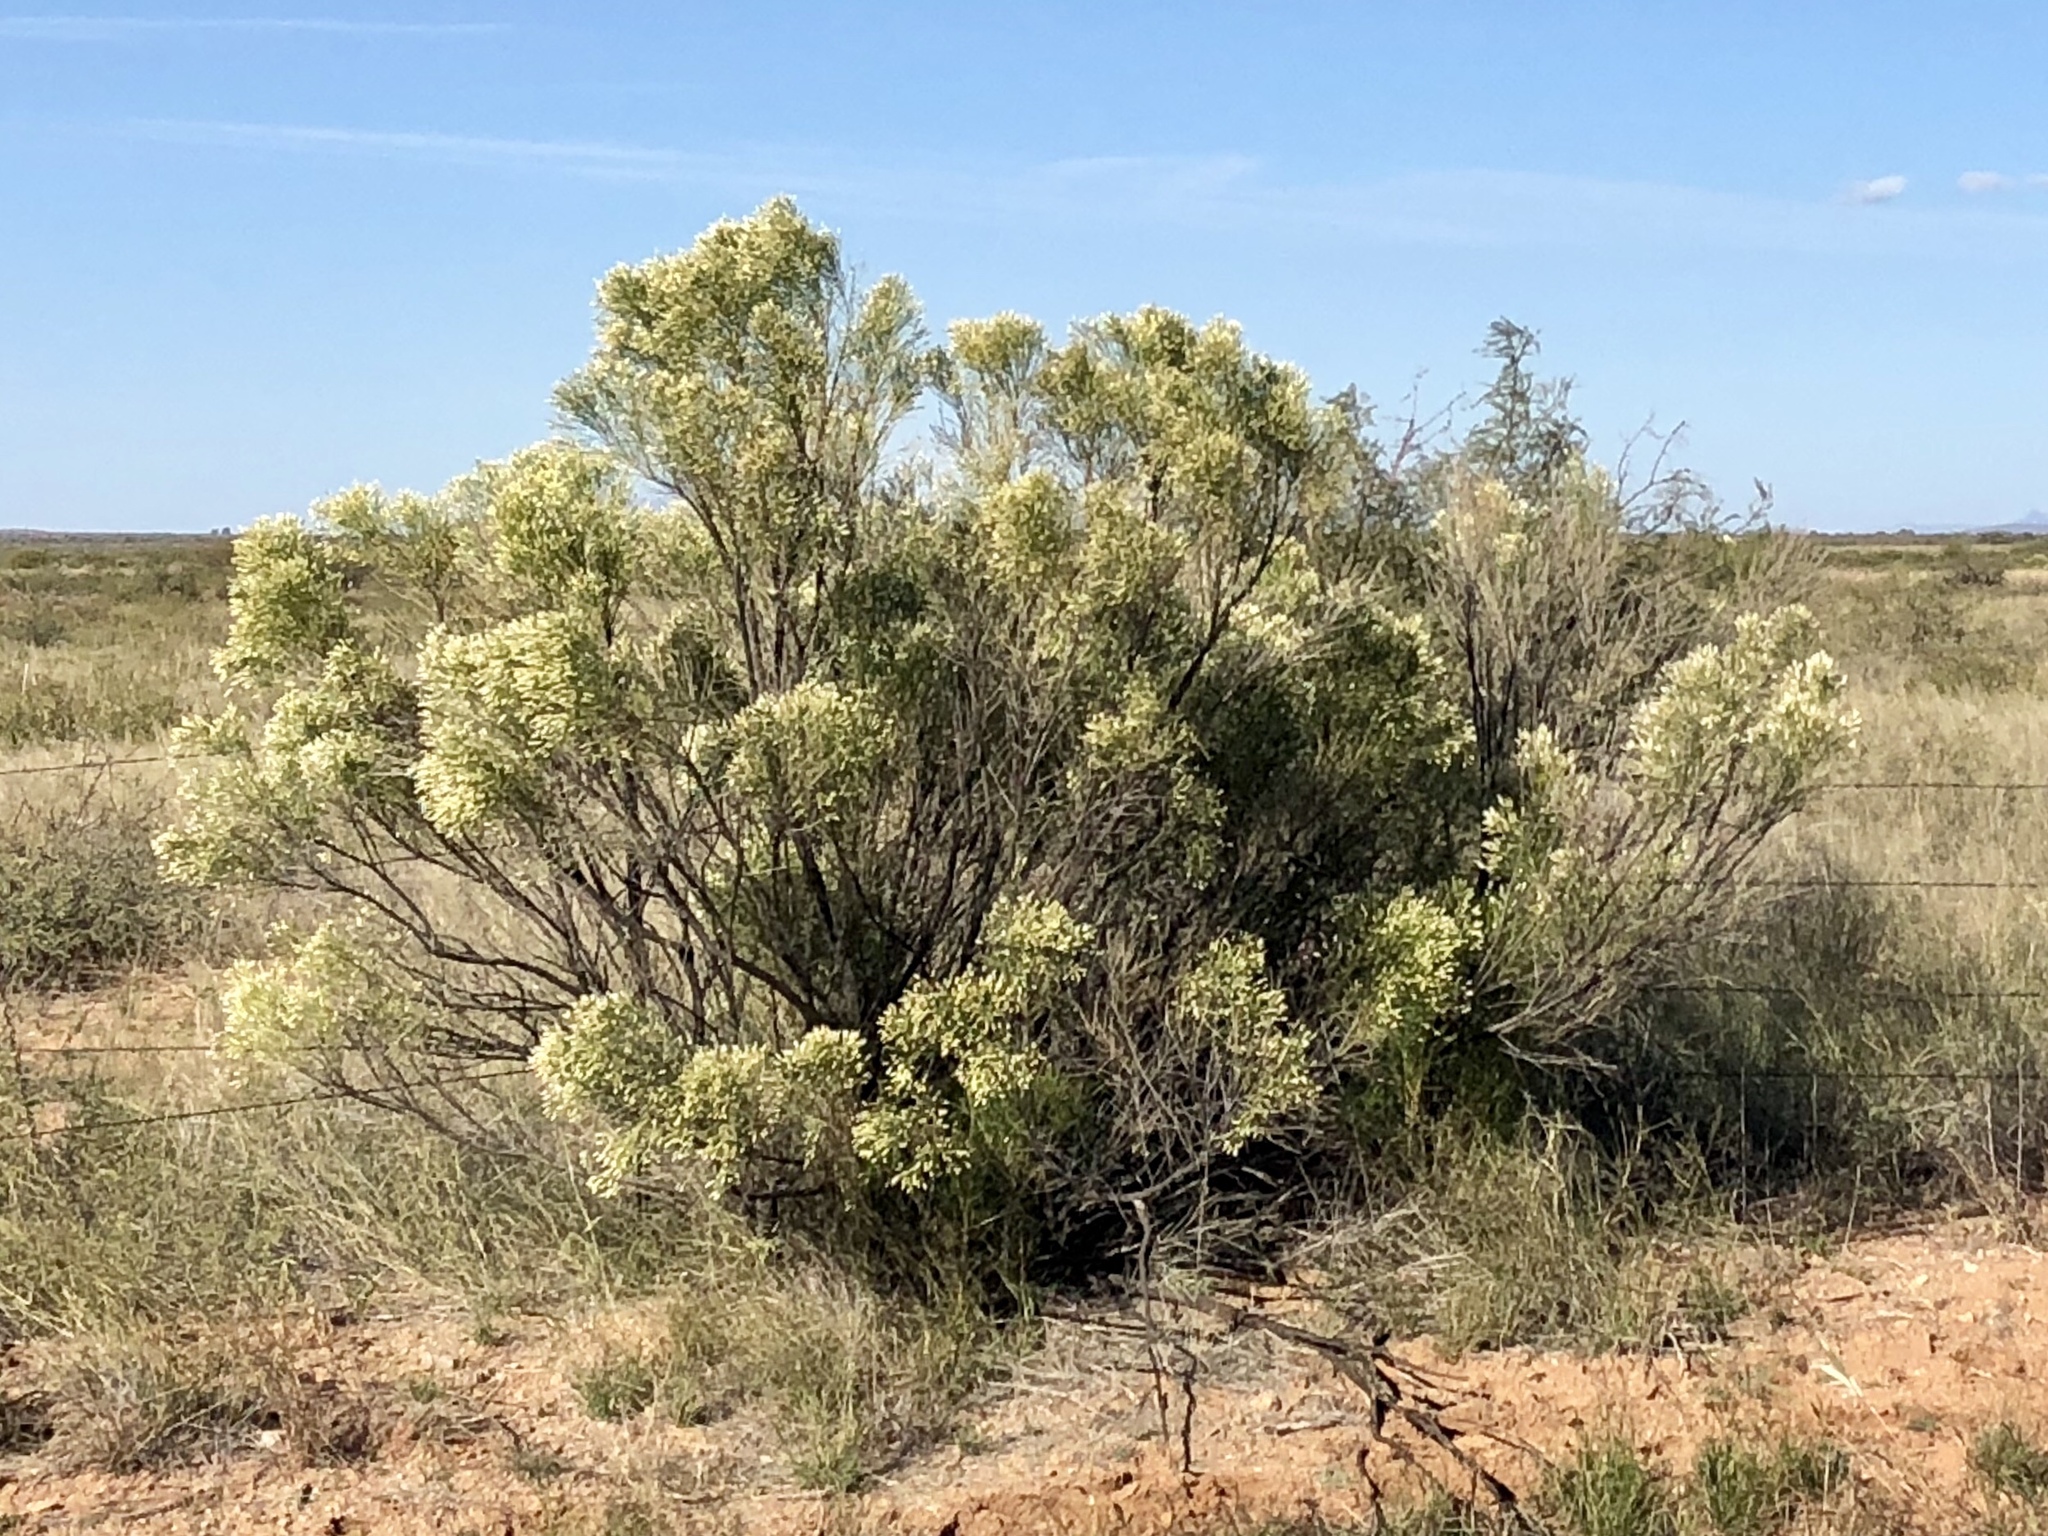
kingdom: Plantae
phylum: Tracheophyta
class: Magnoliopsida
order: Asterales
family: Asteraceae
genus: Baccharis
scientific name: Baccharis sarothroides
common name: Desert-broom
